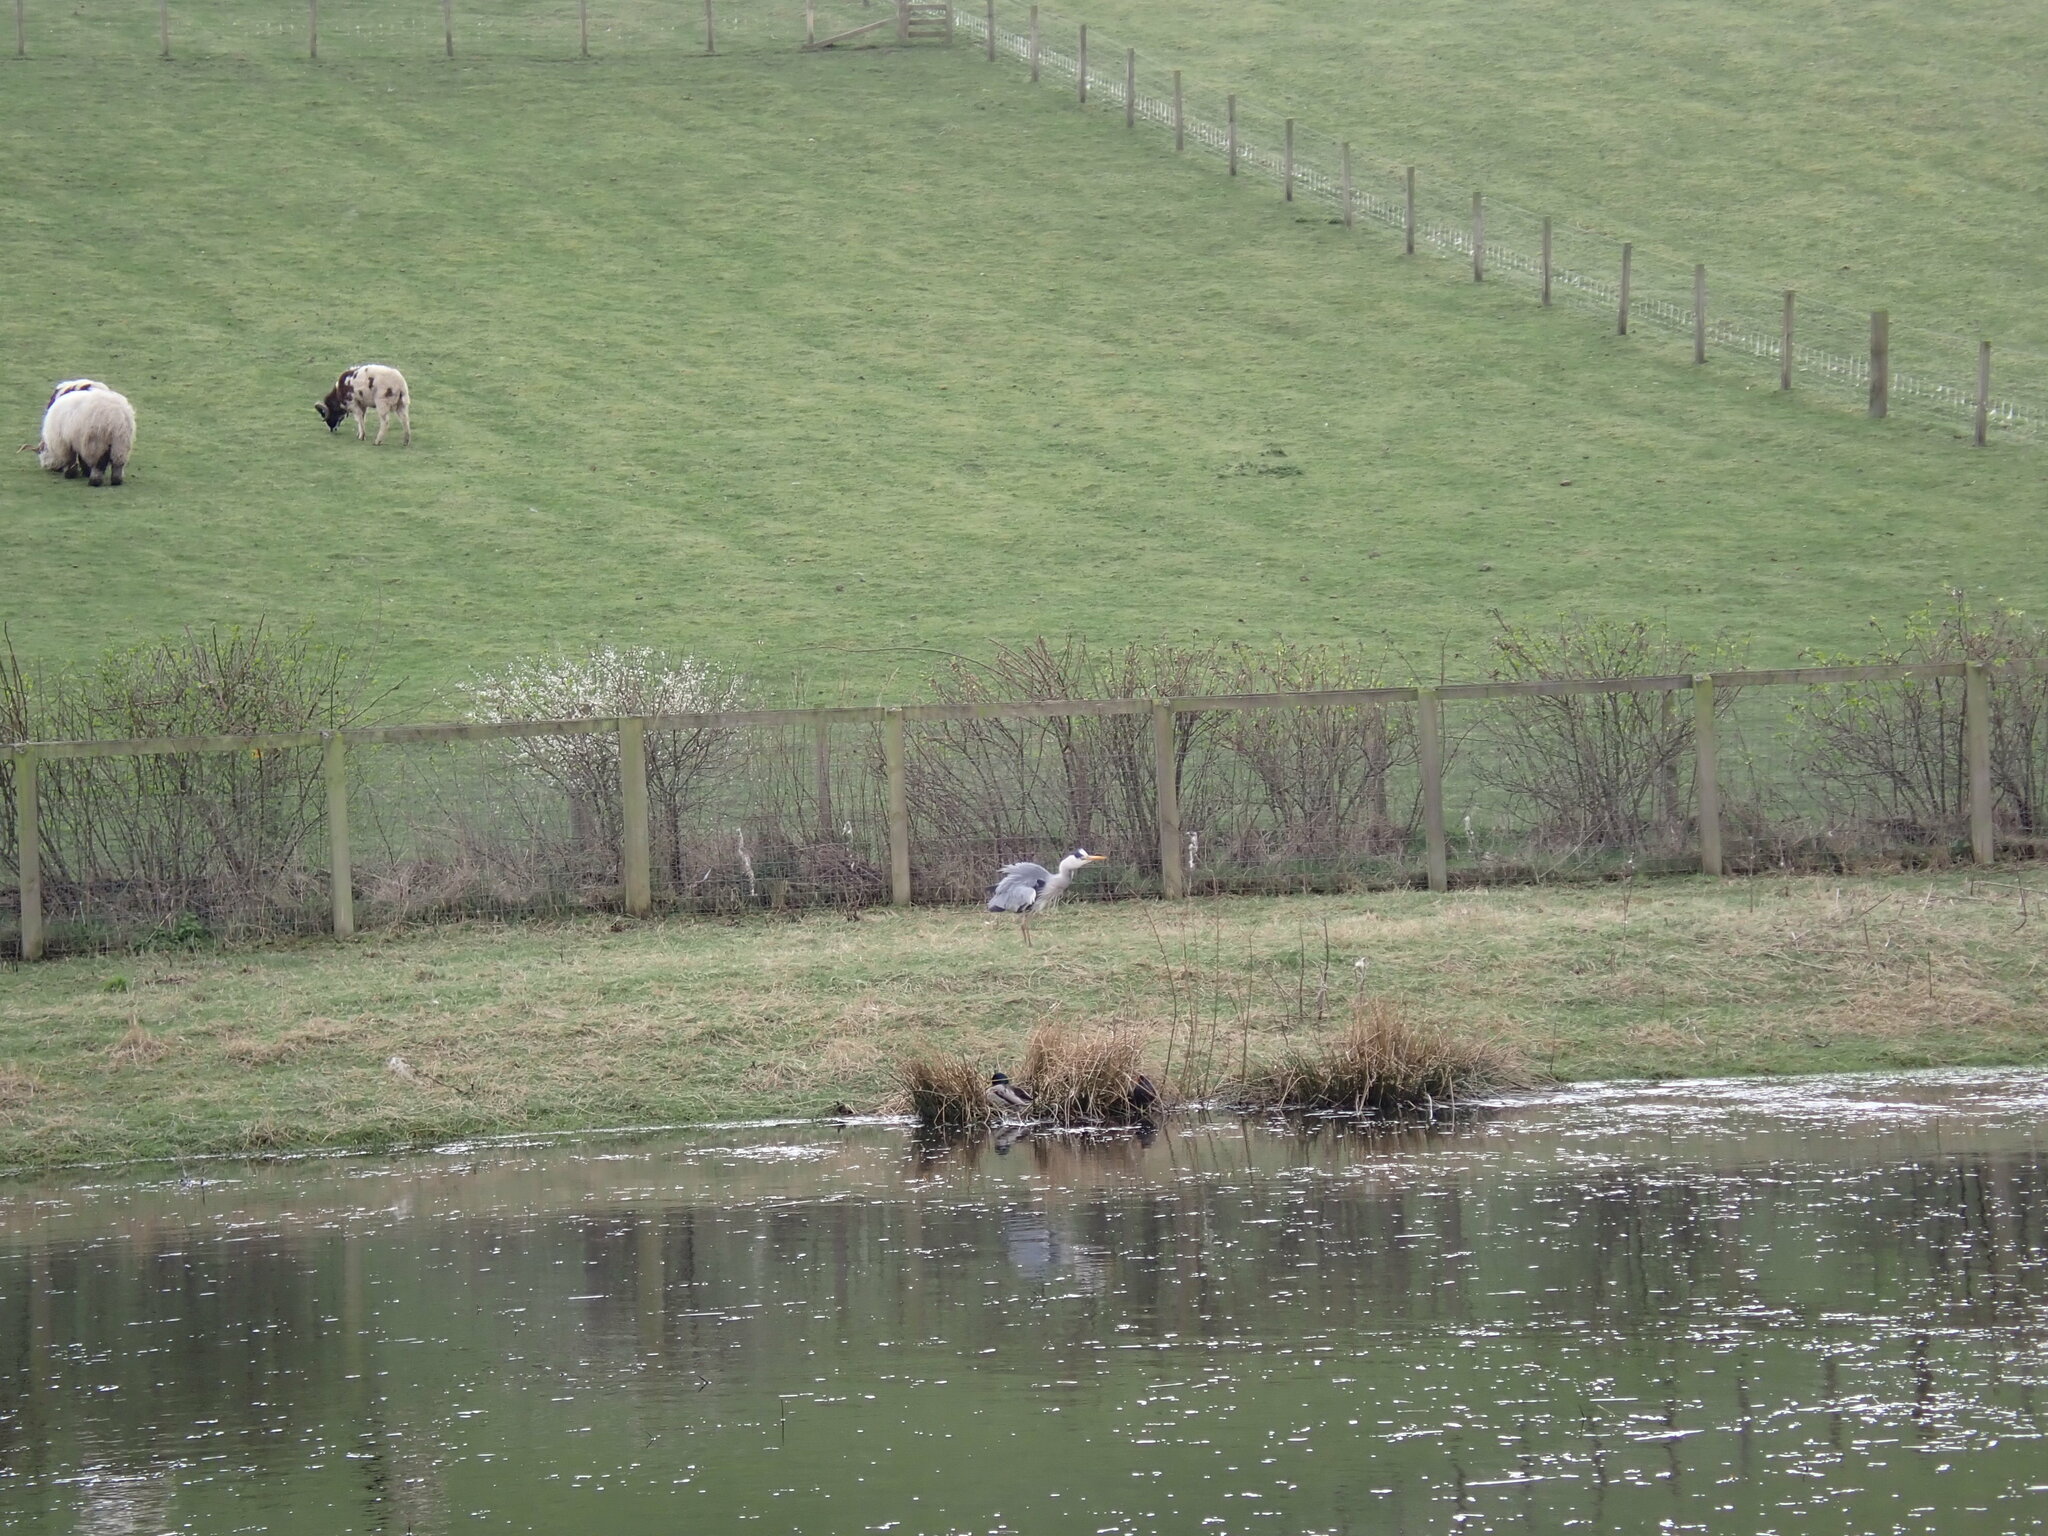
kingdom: Animalia
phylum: Chordata
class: Aves
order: Pelecaniformes
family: Ardeidae
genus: Ardea
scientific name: Ardea cinerea
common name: Grey heron
